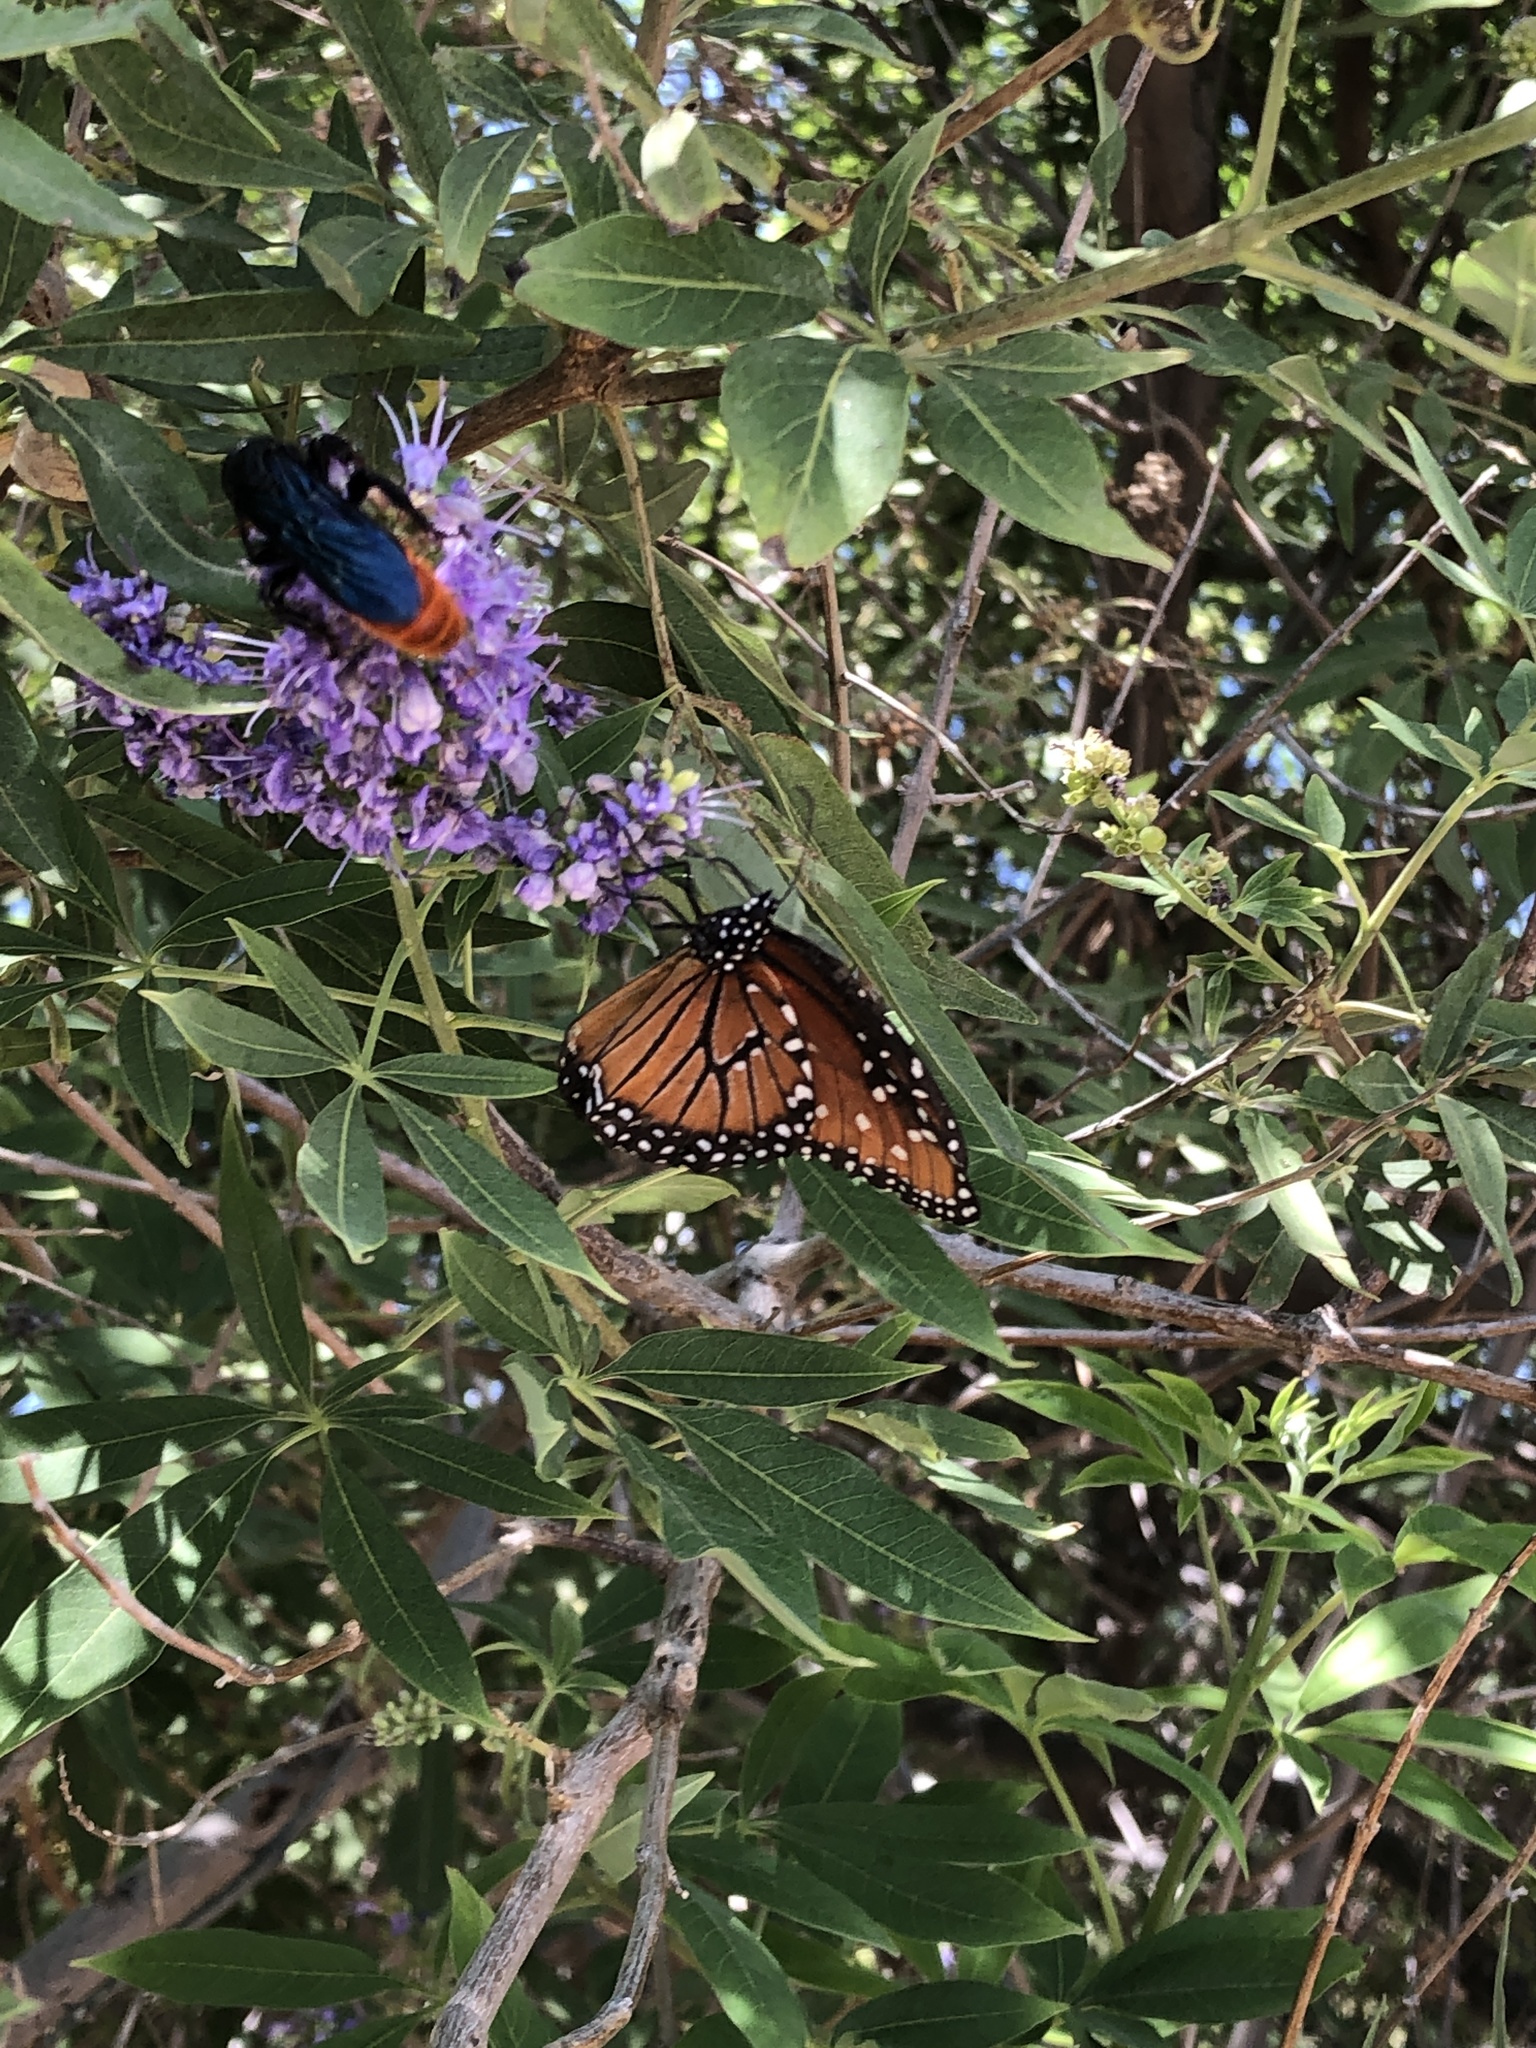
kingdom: Animalia
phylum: Arthropoda
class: Insecta
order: Lepidoptera
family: Nymphalidae
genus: Danaus
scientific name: Danaus gilippus
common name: Queen
